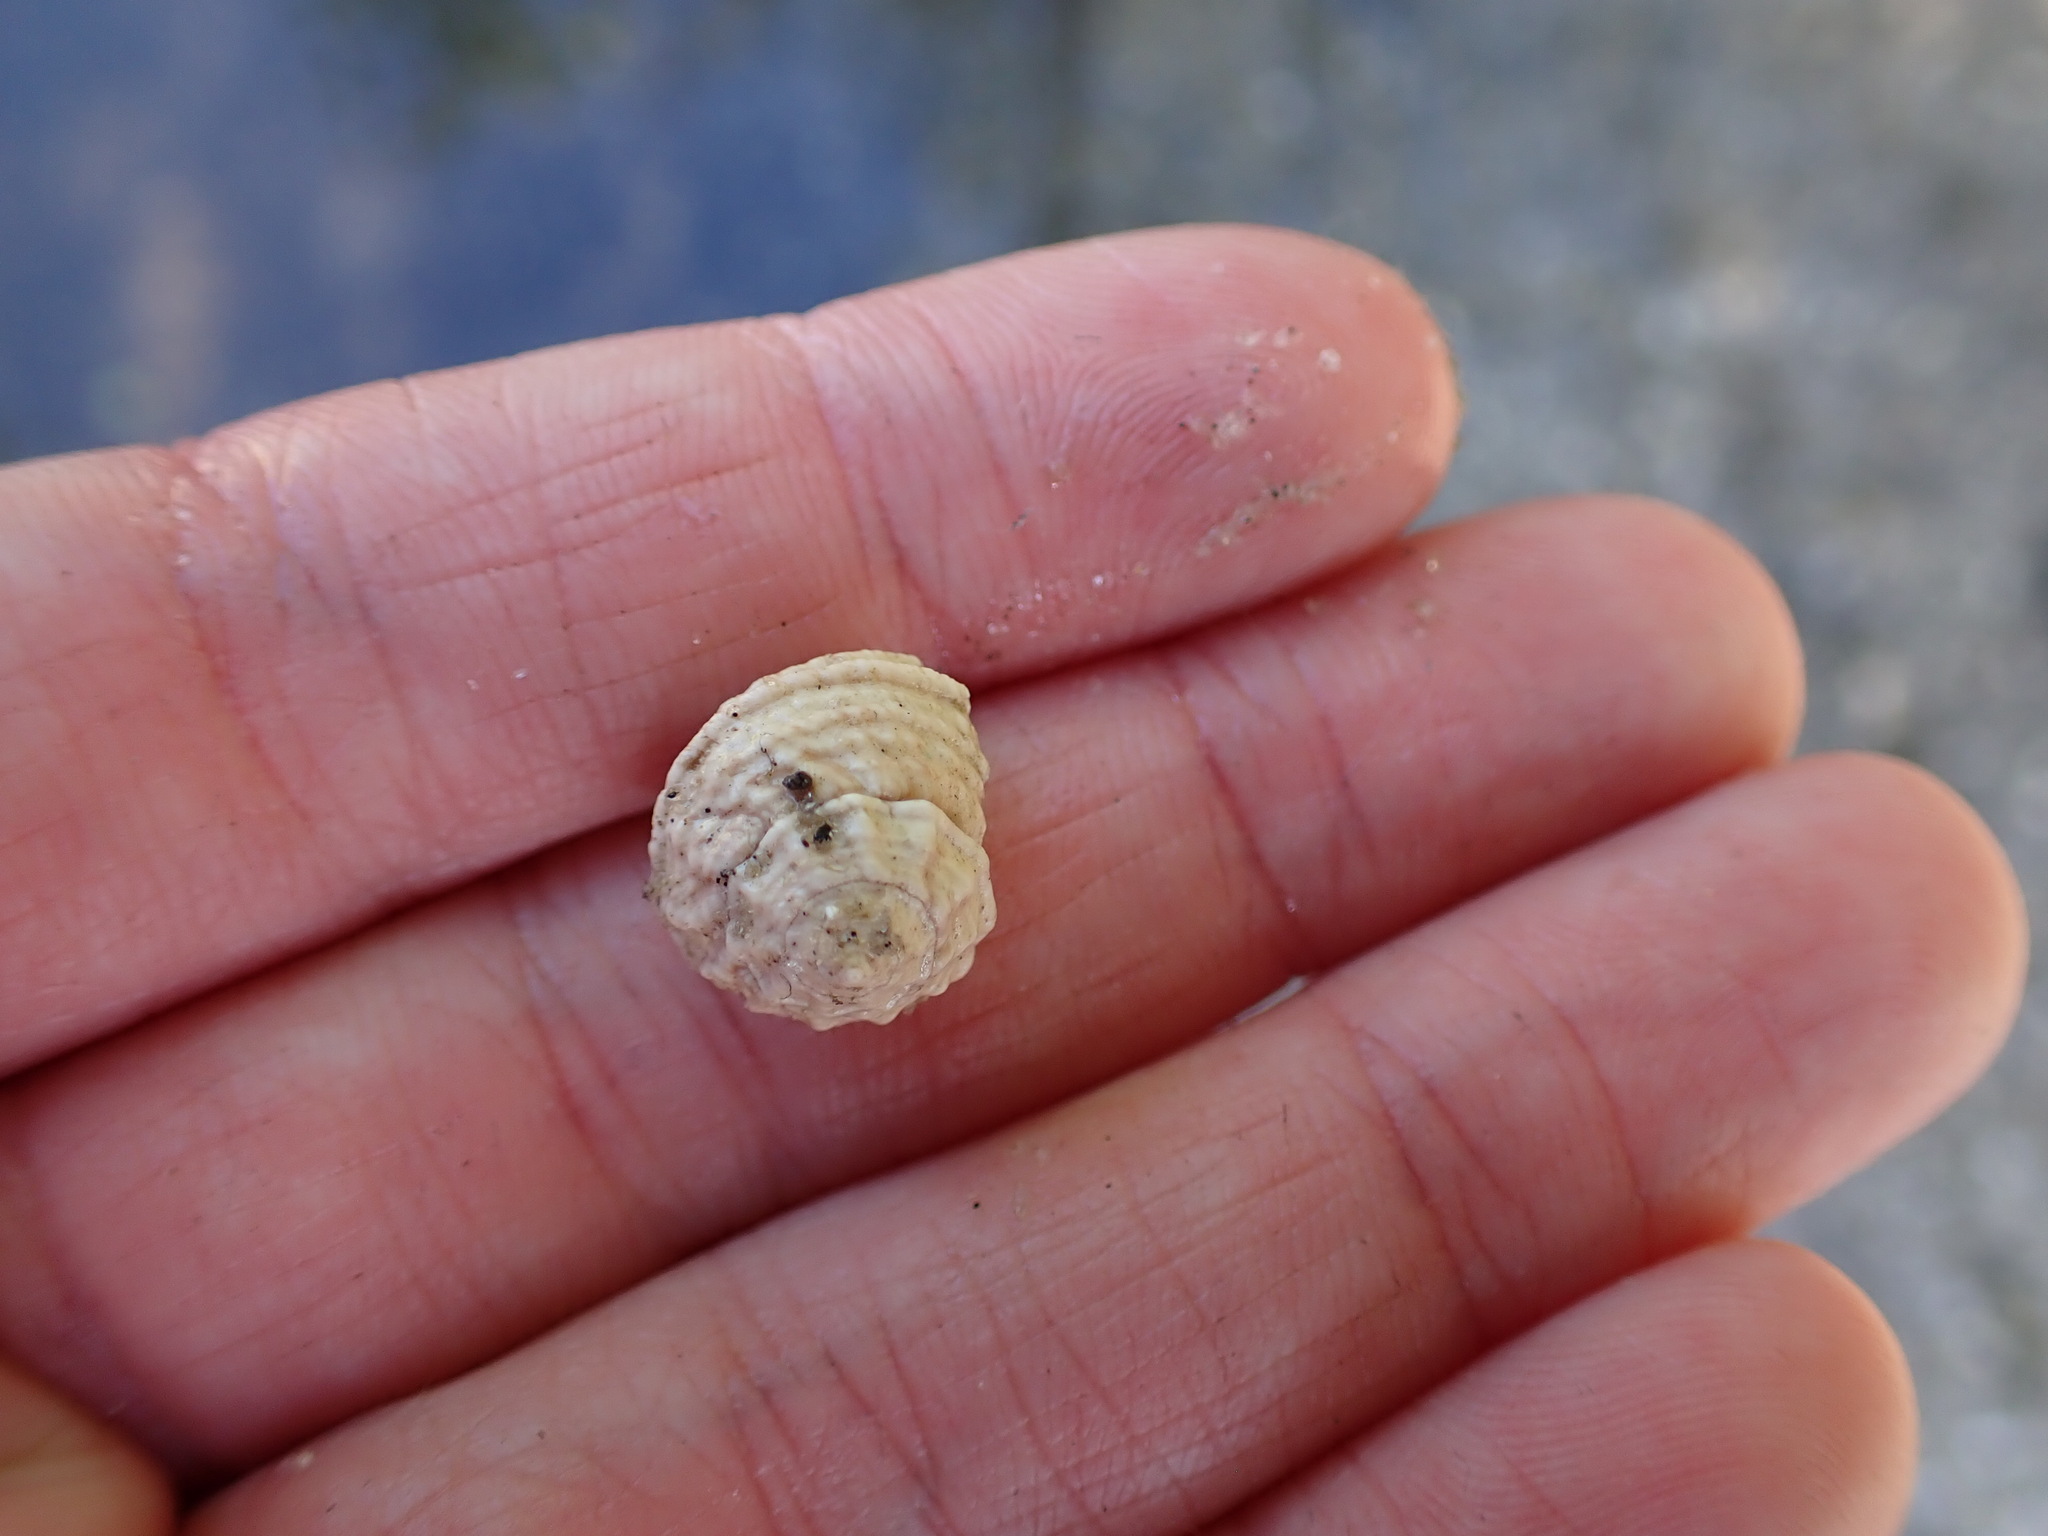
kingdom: Animalia
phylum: Mollusca
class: Gastropoda
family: Modulidae
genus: Modulus
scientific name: Modulus modulus
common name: Atlantic modulus
